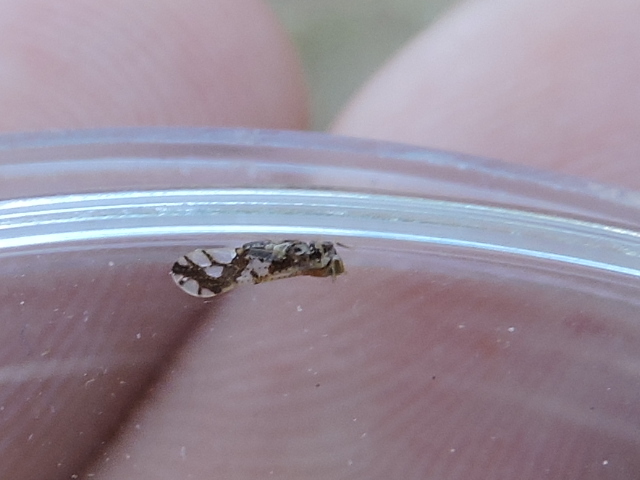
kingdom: Animalia
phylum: Arthropoda
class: Insecta
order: Hemiptera
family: Delphacidae
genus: Liburniella
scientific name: Liburniella ornata
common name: Ornate planthopper
